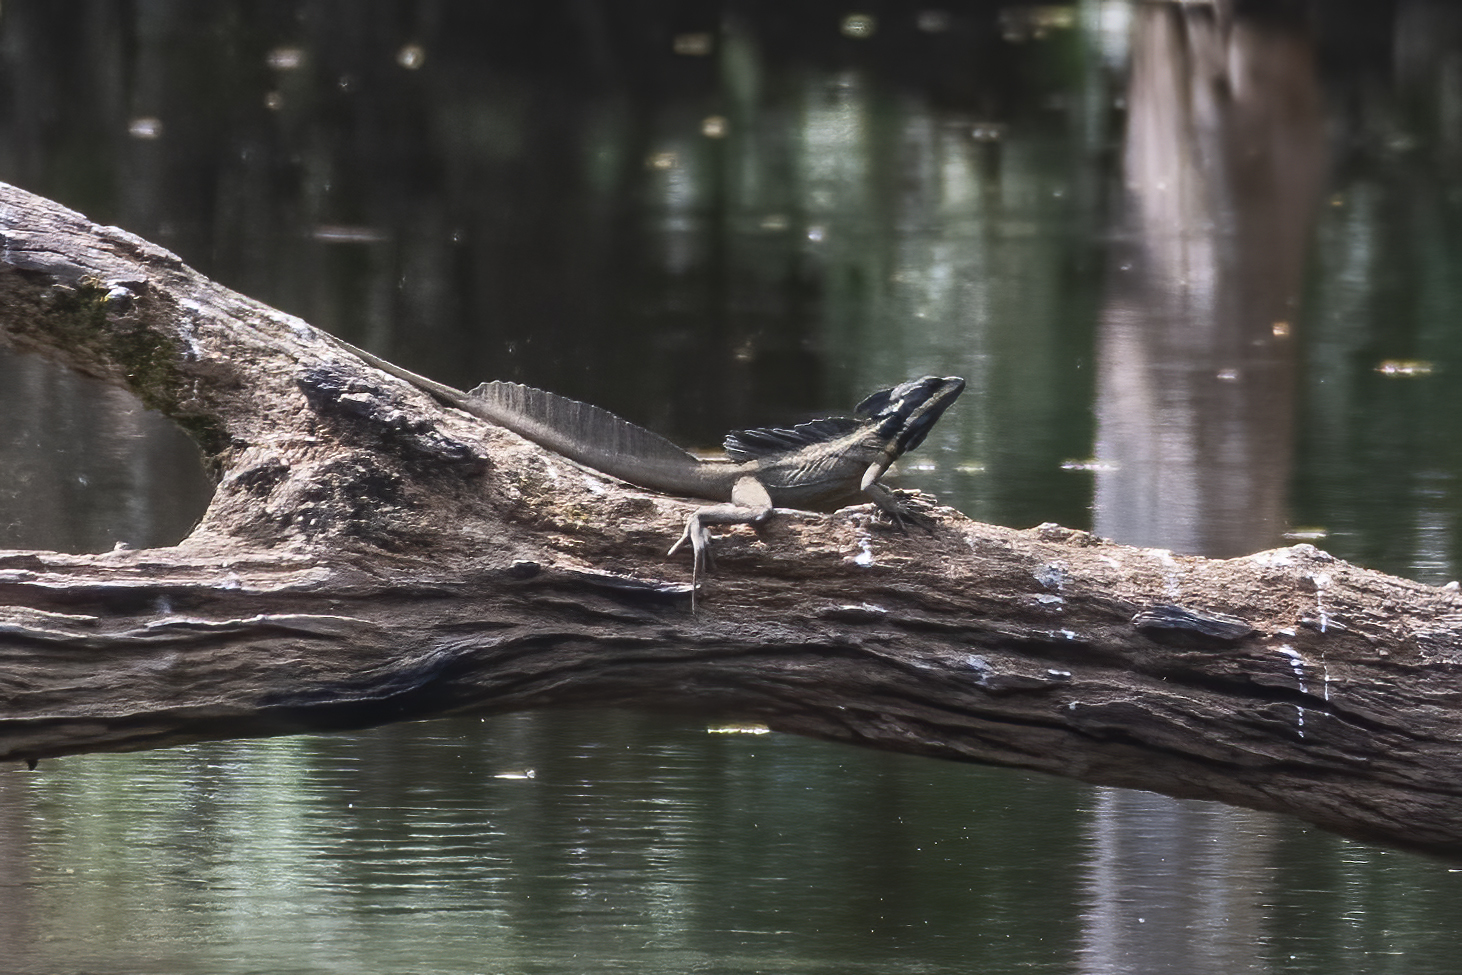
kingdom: Animalia
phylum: Chordata
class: Squamata
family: Corytophanidae
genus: Basiliscus
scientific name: Basiliscus basiliscus
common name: Common basilisk
